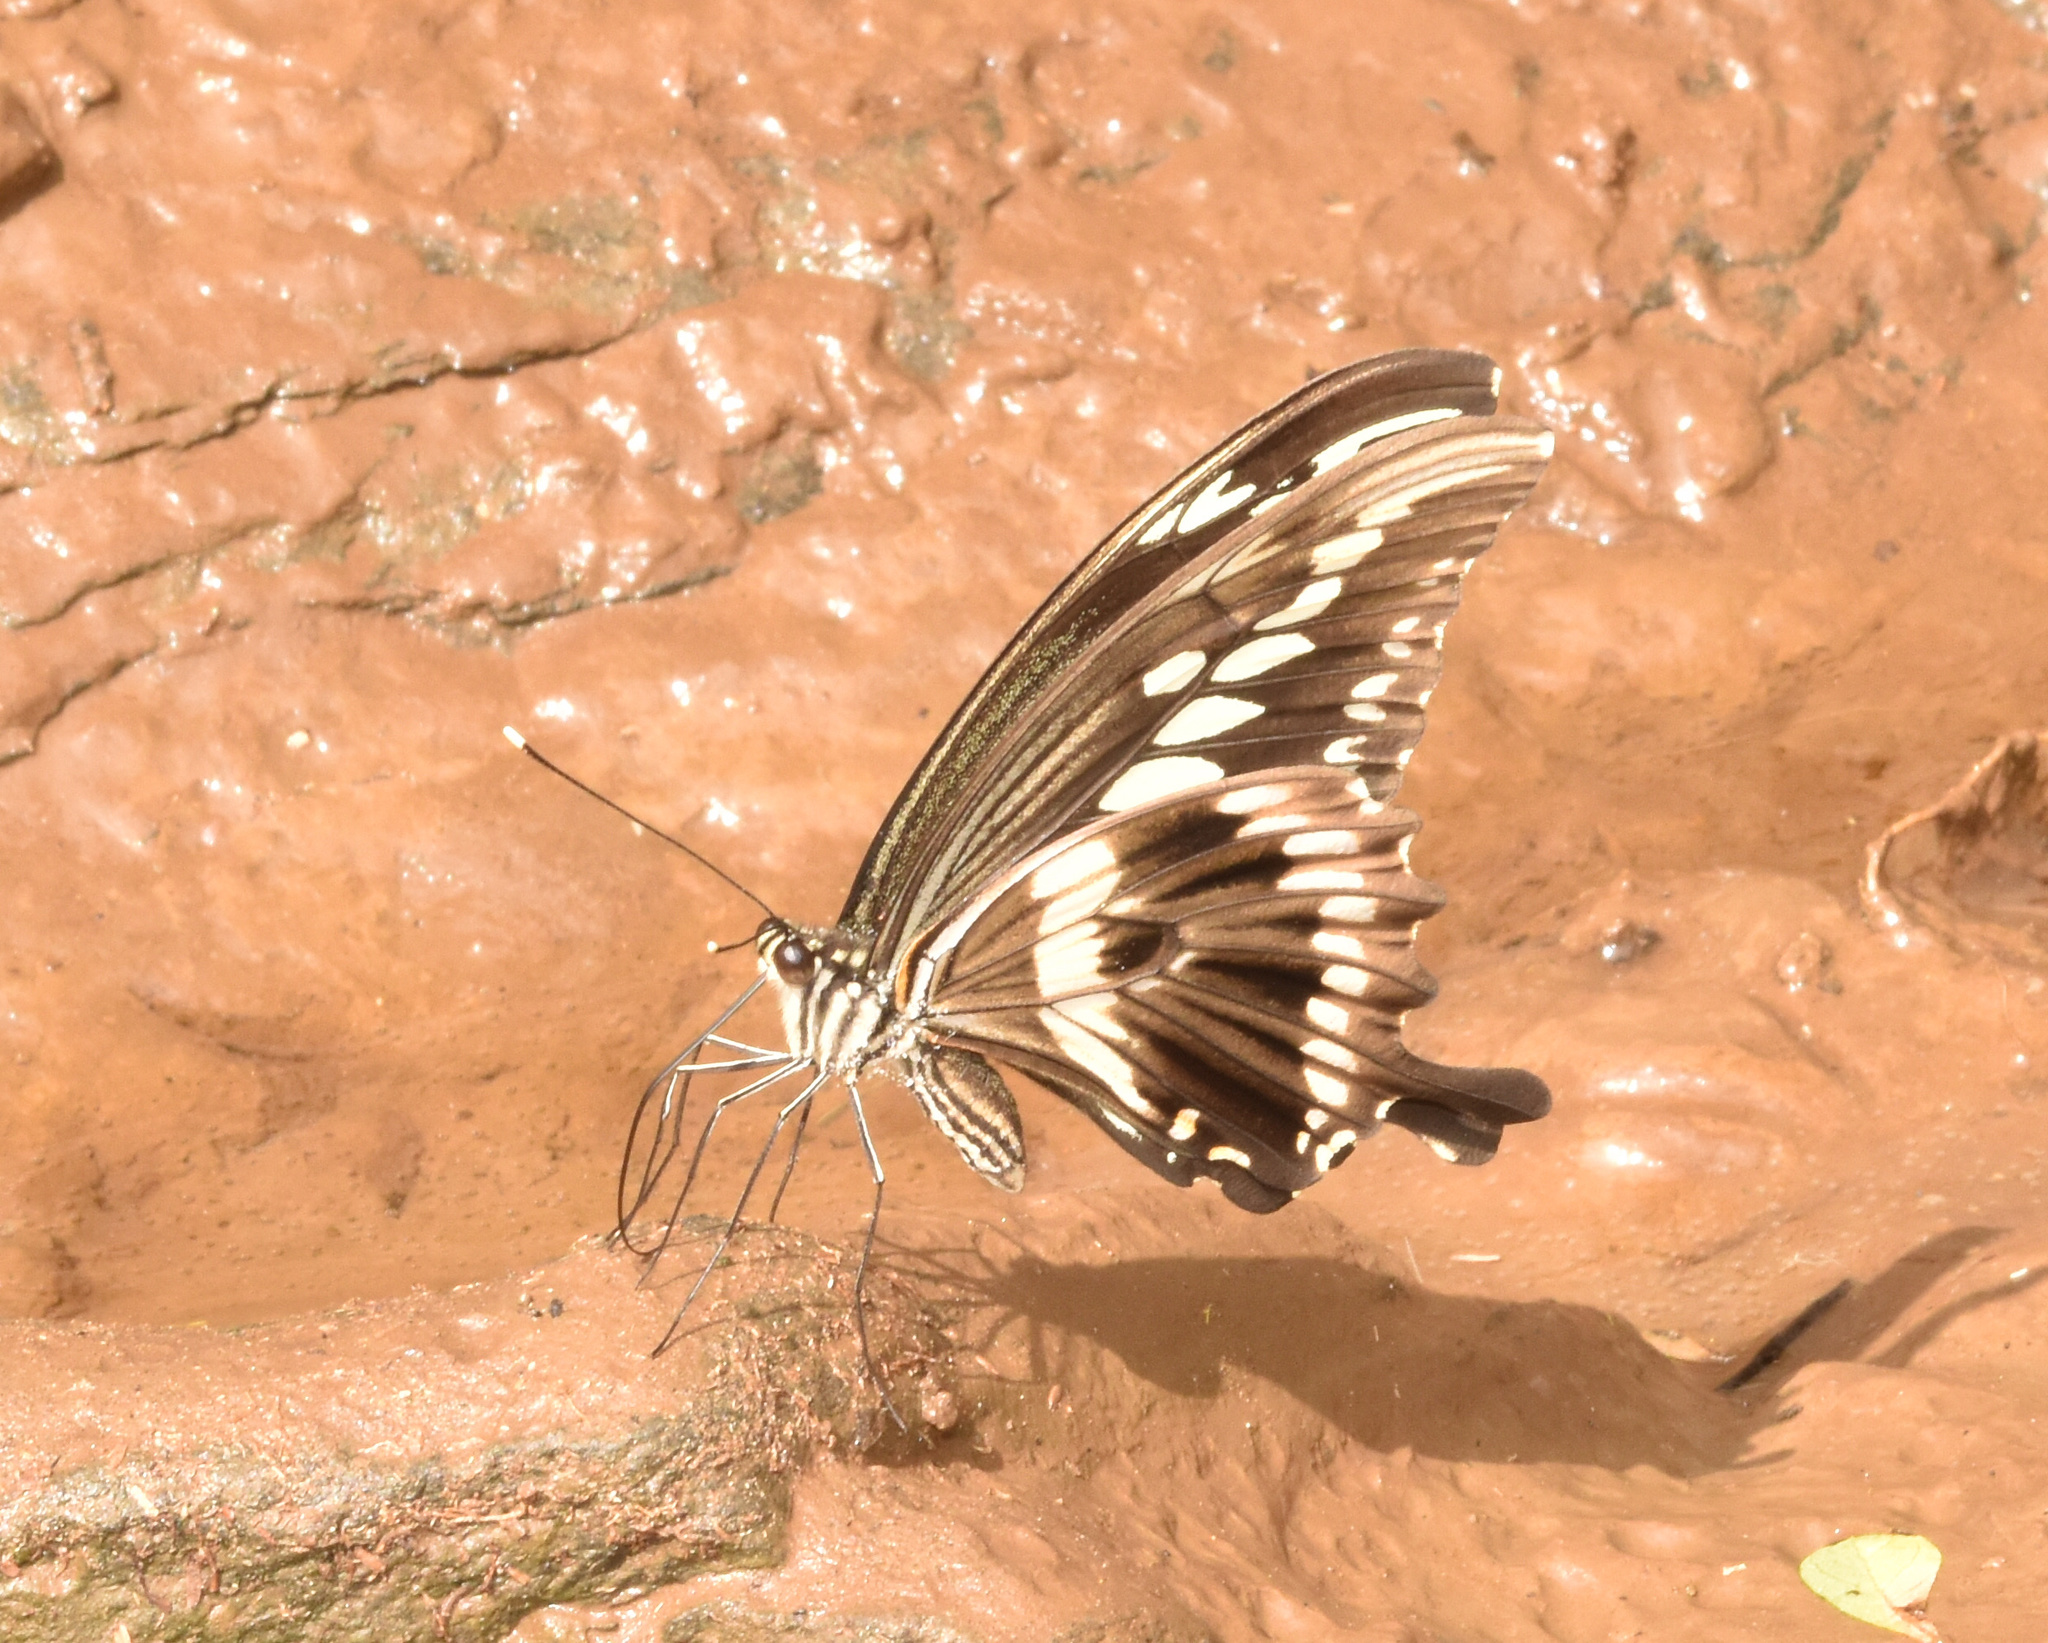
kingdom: Animalia
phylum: Arthropoda
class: Insecta
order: Lepidoptera
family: Papilionidae
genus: Papilio
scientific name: Papilio constantinus
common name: Constantine's swallowtail
